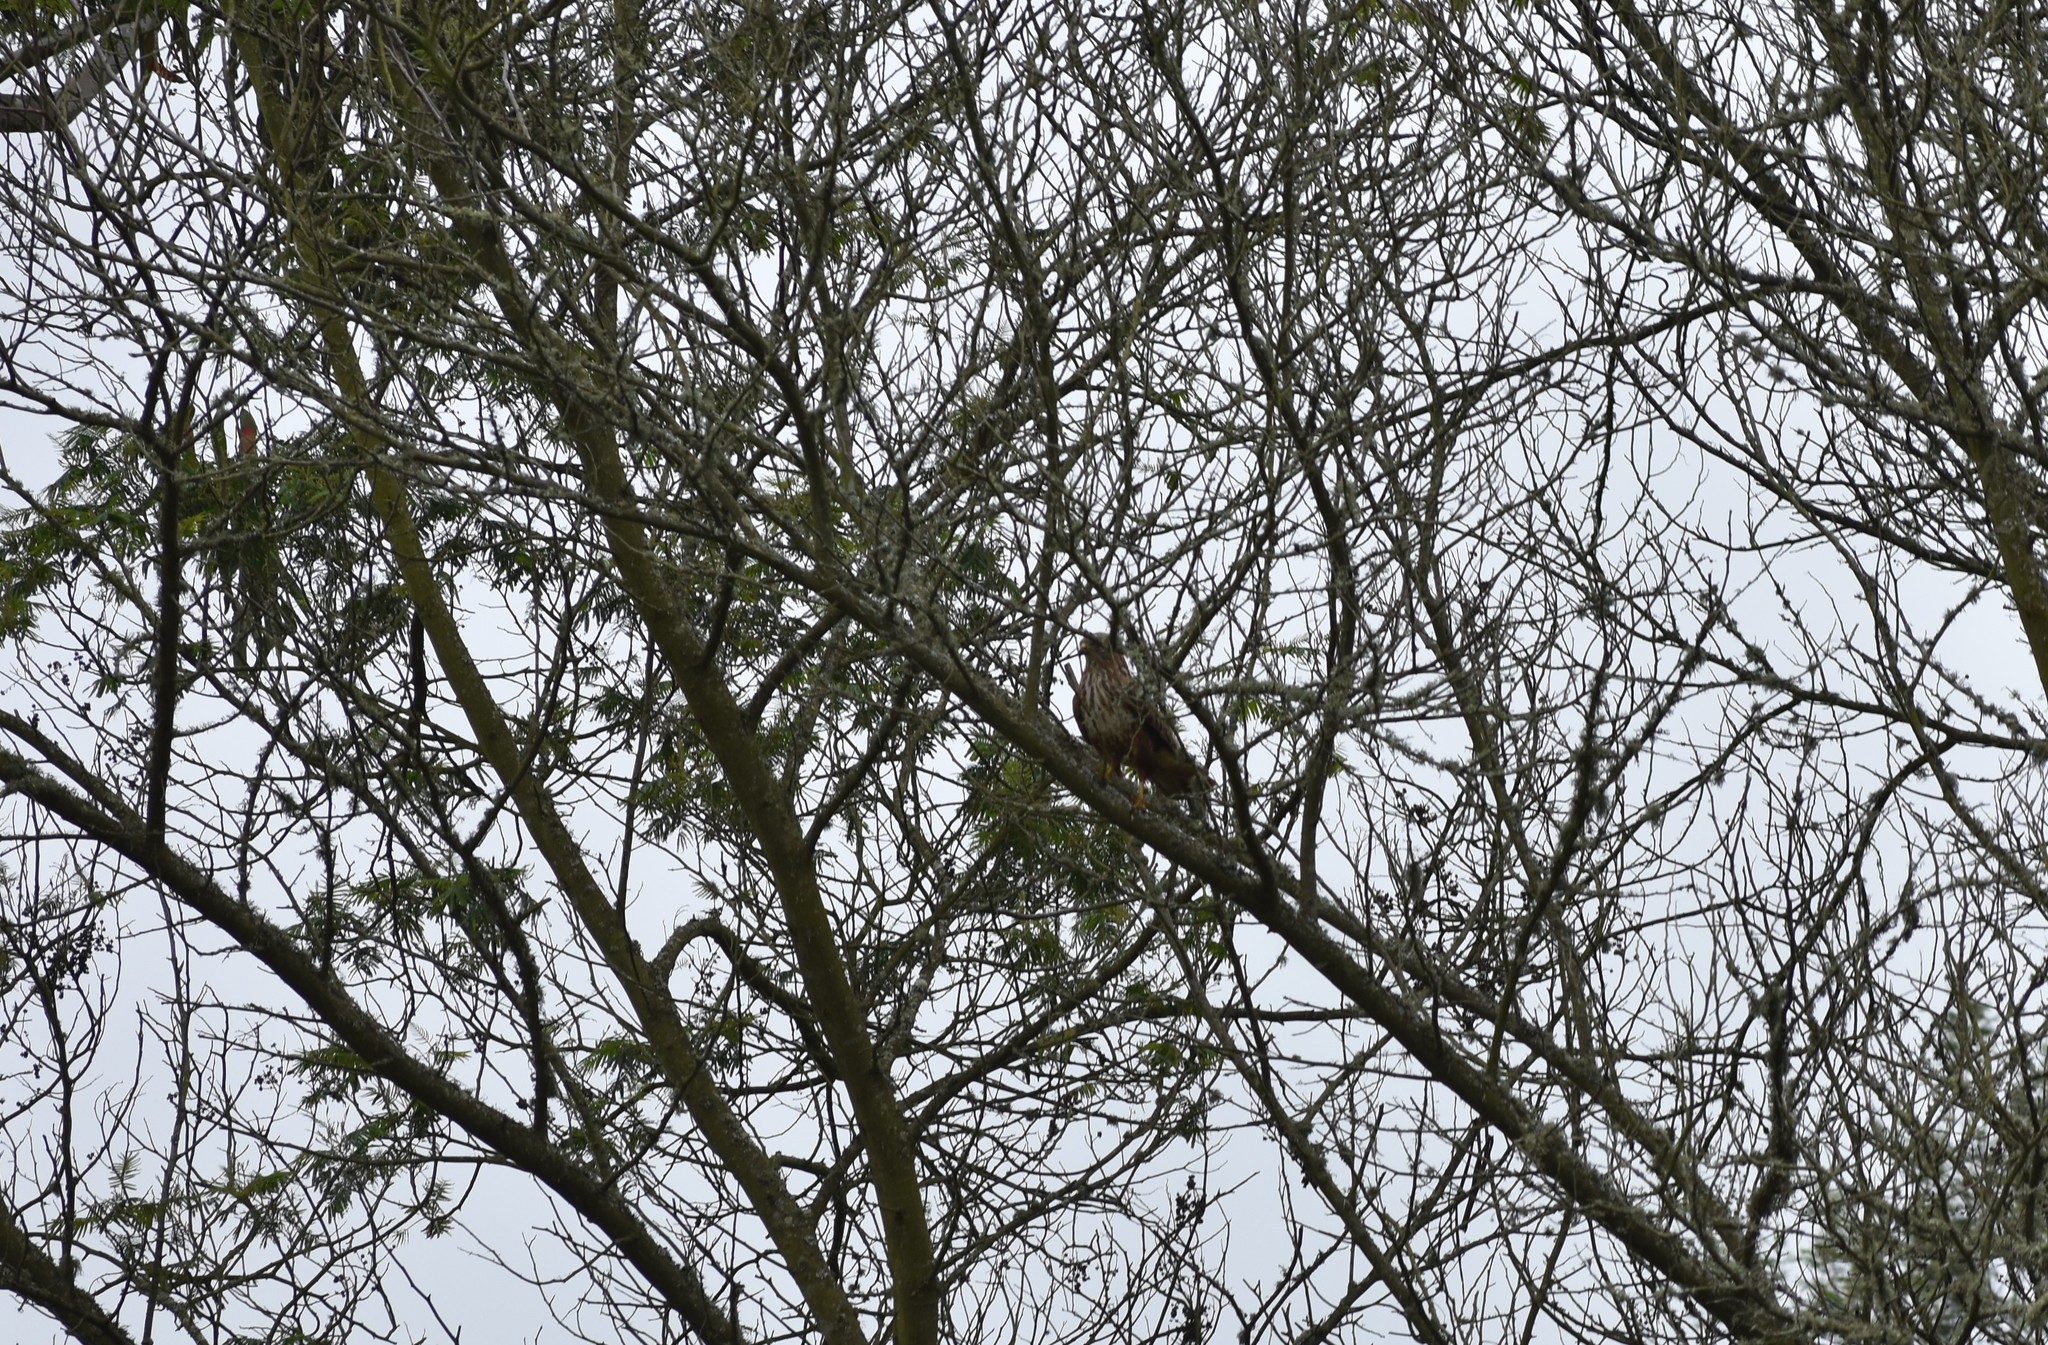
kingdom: Animalia
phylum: Chordata
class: Aves
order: Accipitriformes
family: Accipitridae
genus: Buteo
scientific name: Buteo trizonatus
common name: Forest buzzard
